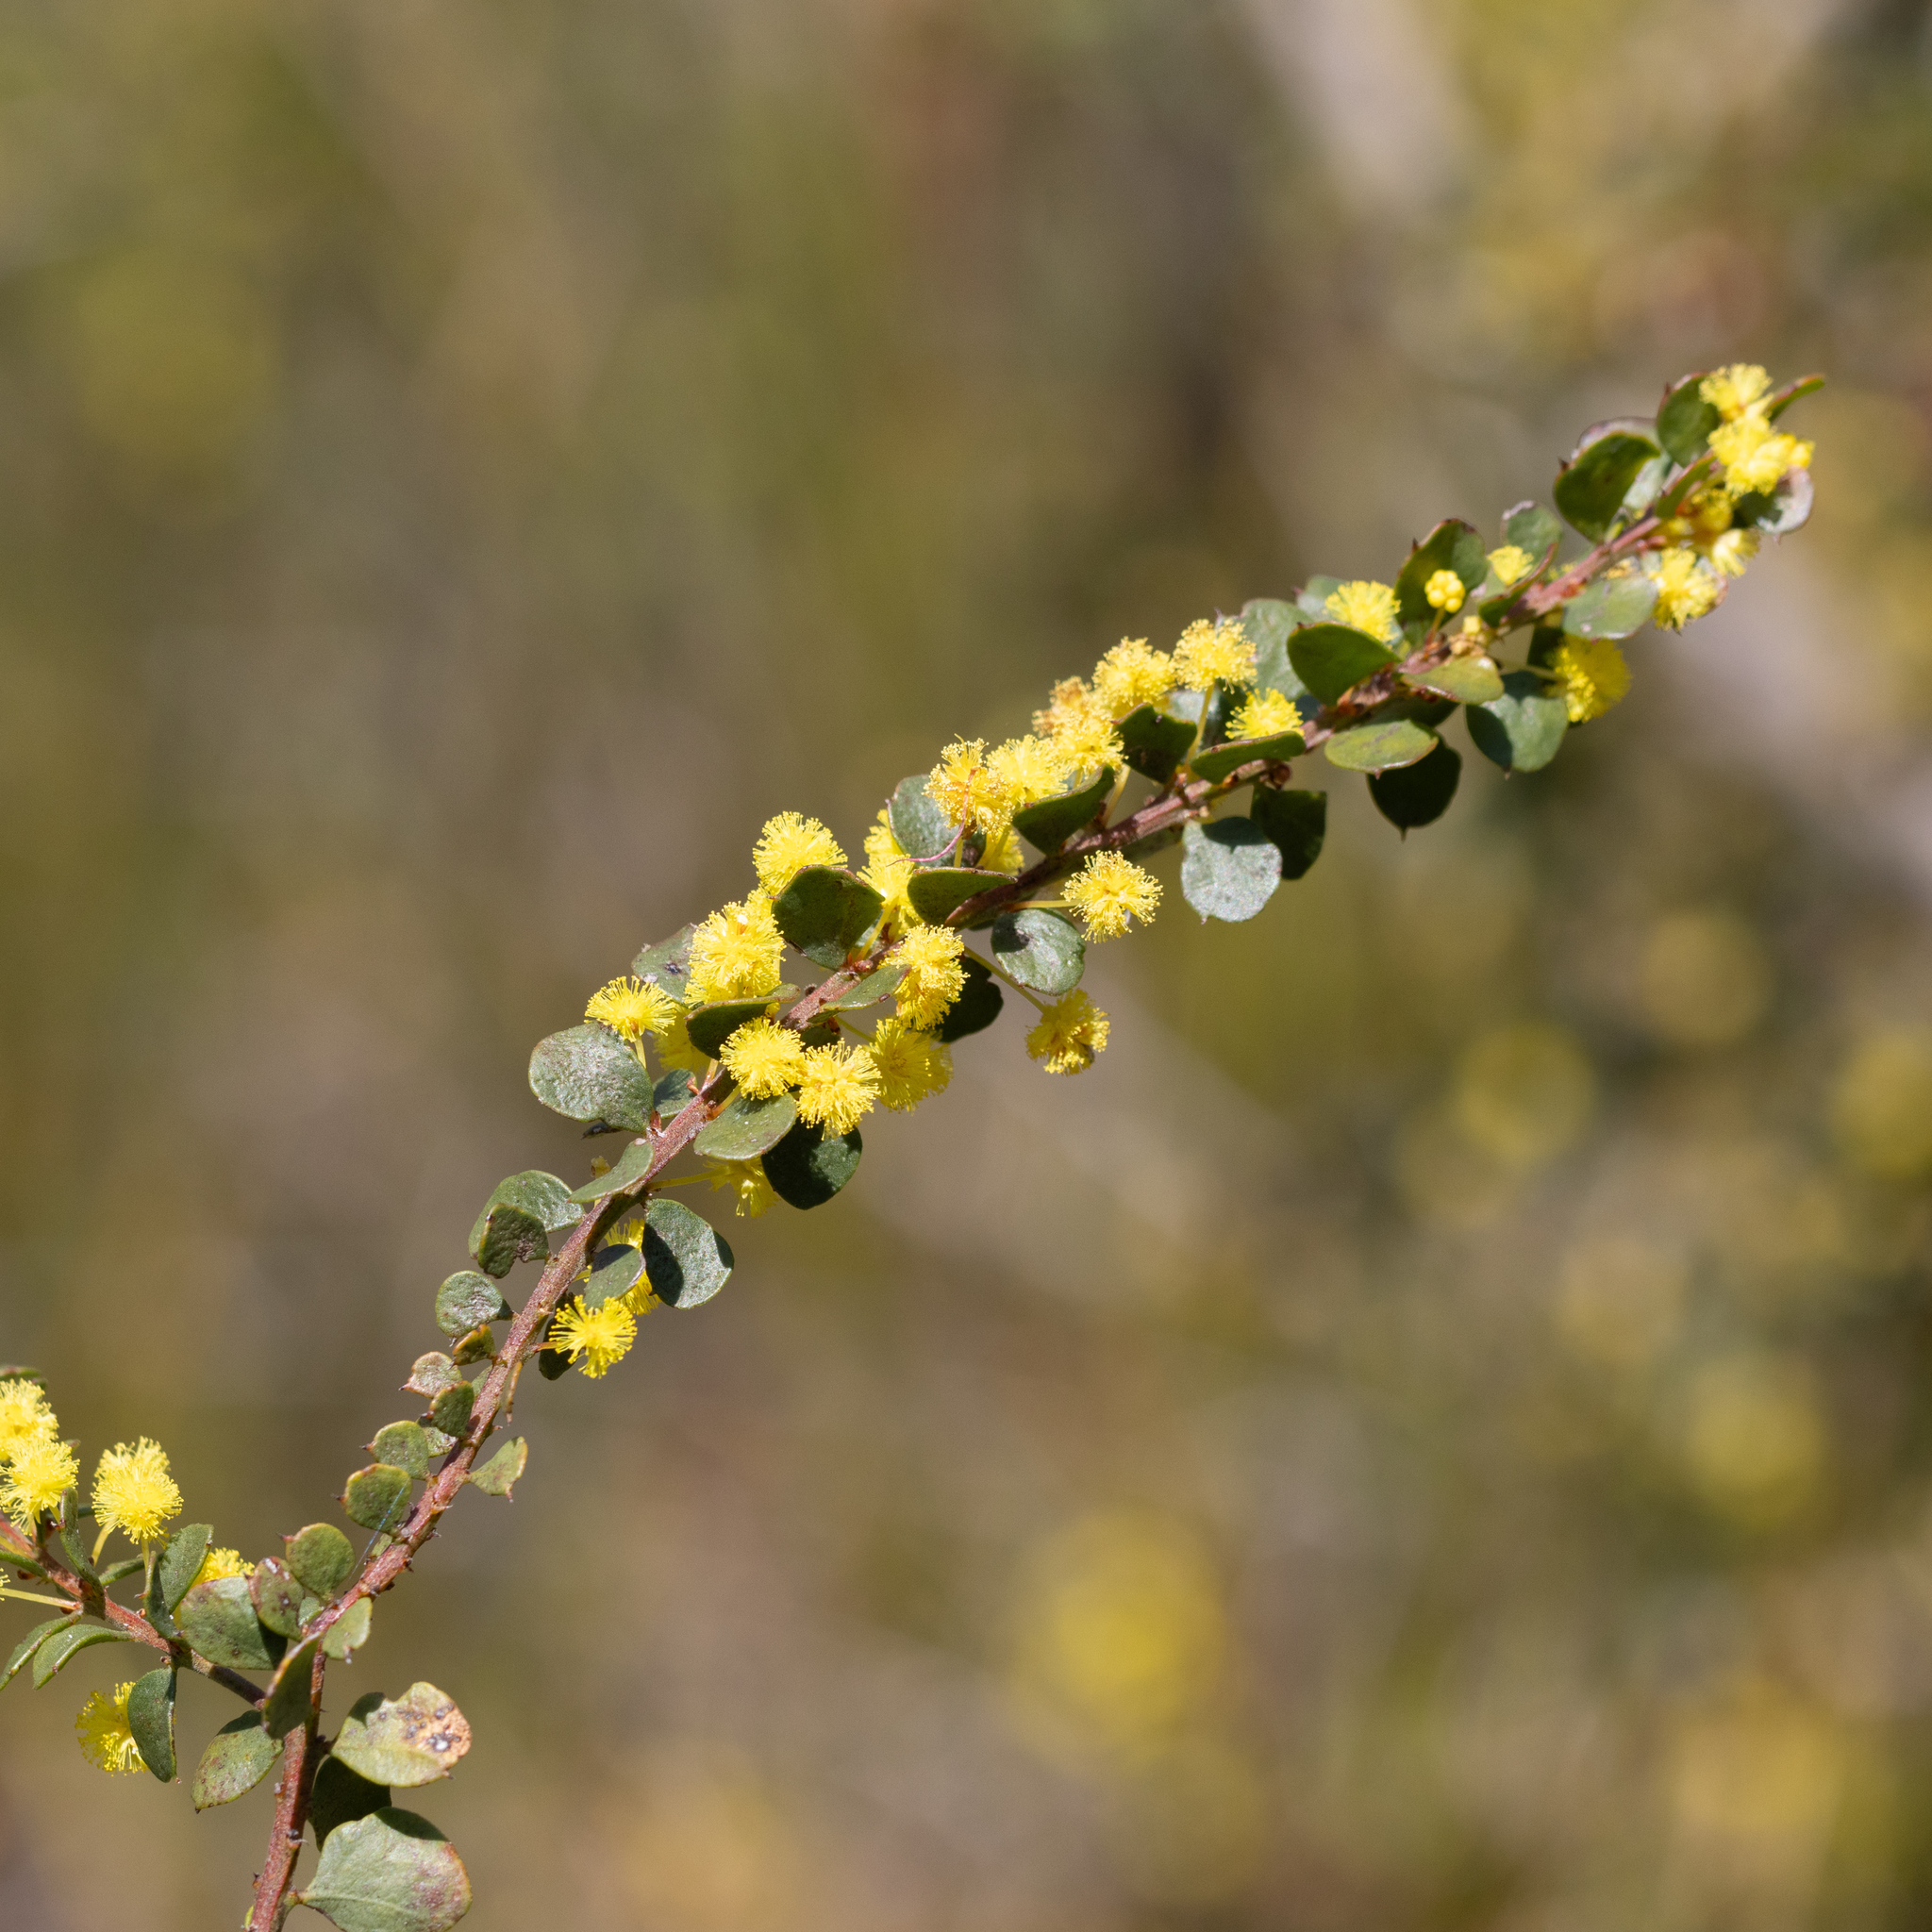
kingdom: Plantae
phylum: Tracheophyta
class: Magnoliopsida
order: Fabales
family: Fabaceae
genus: Acacia
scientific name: Acacia acinacea
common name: Gold-dust acacia
